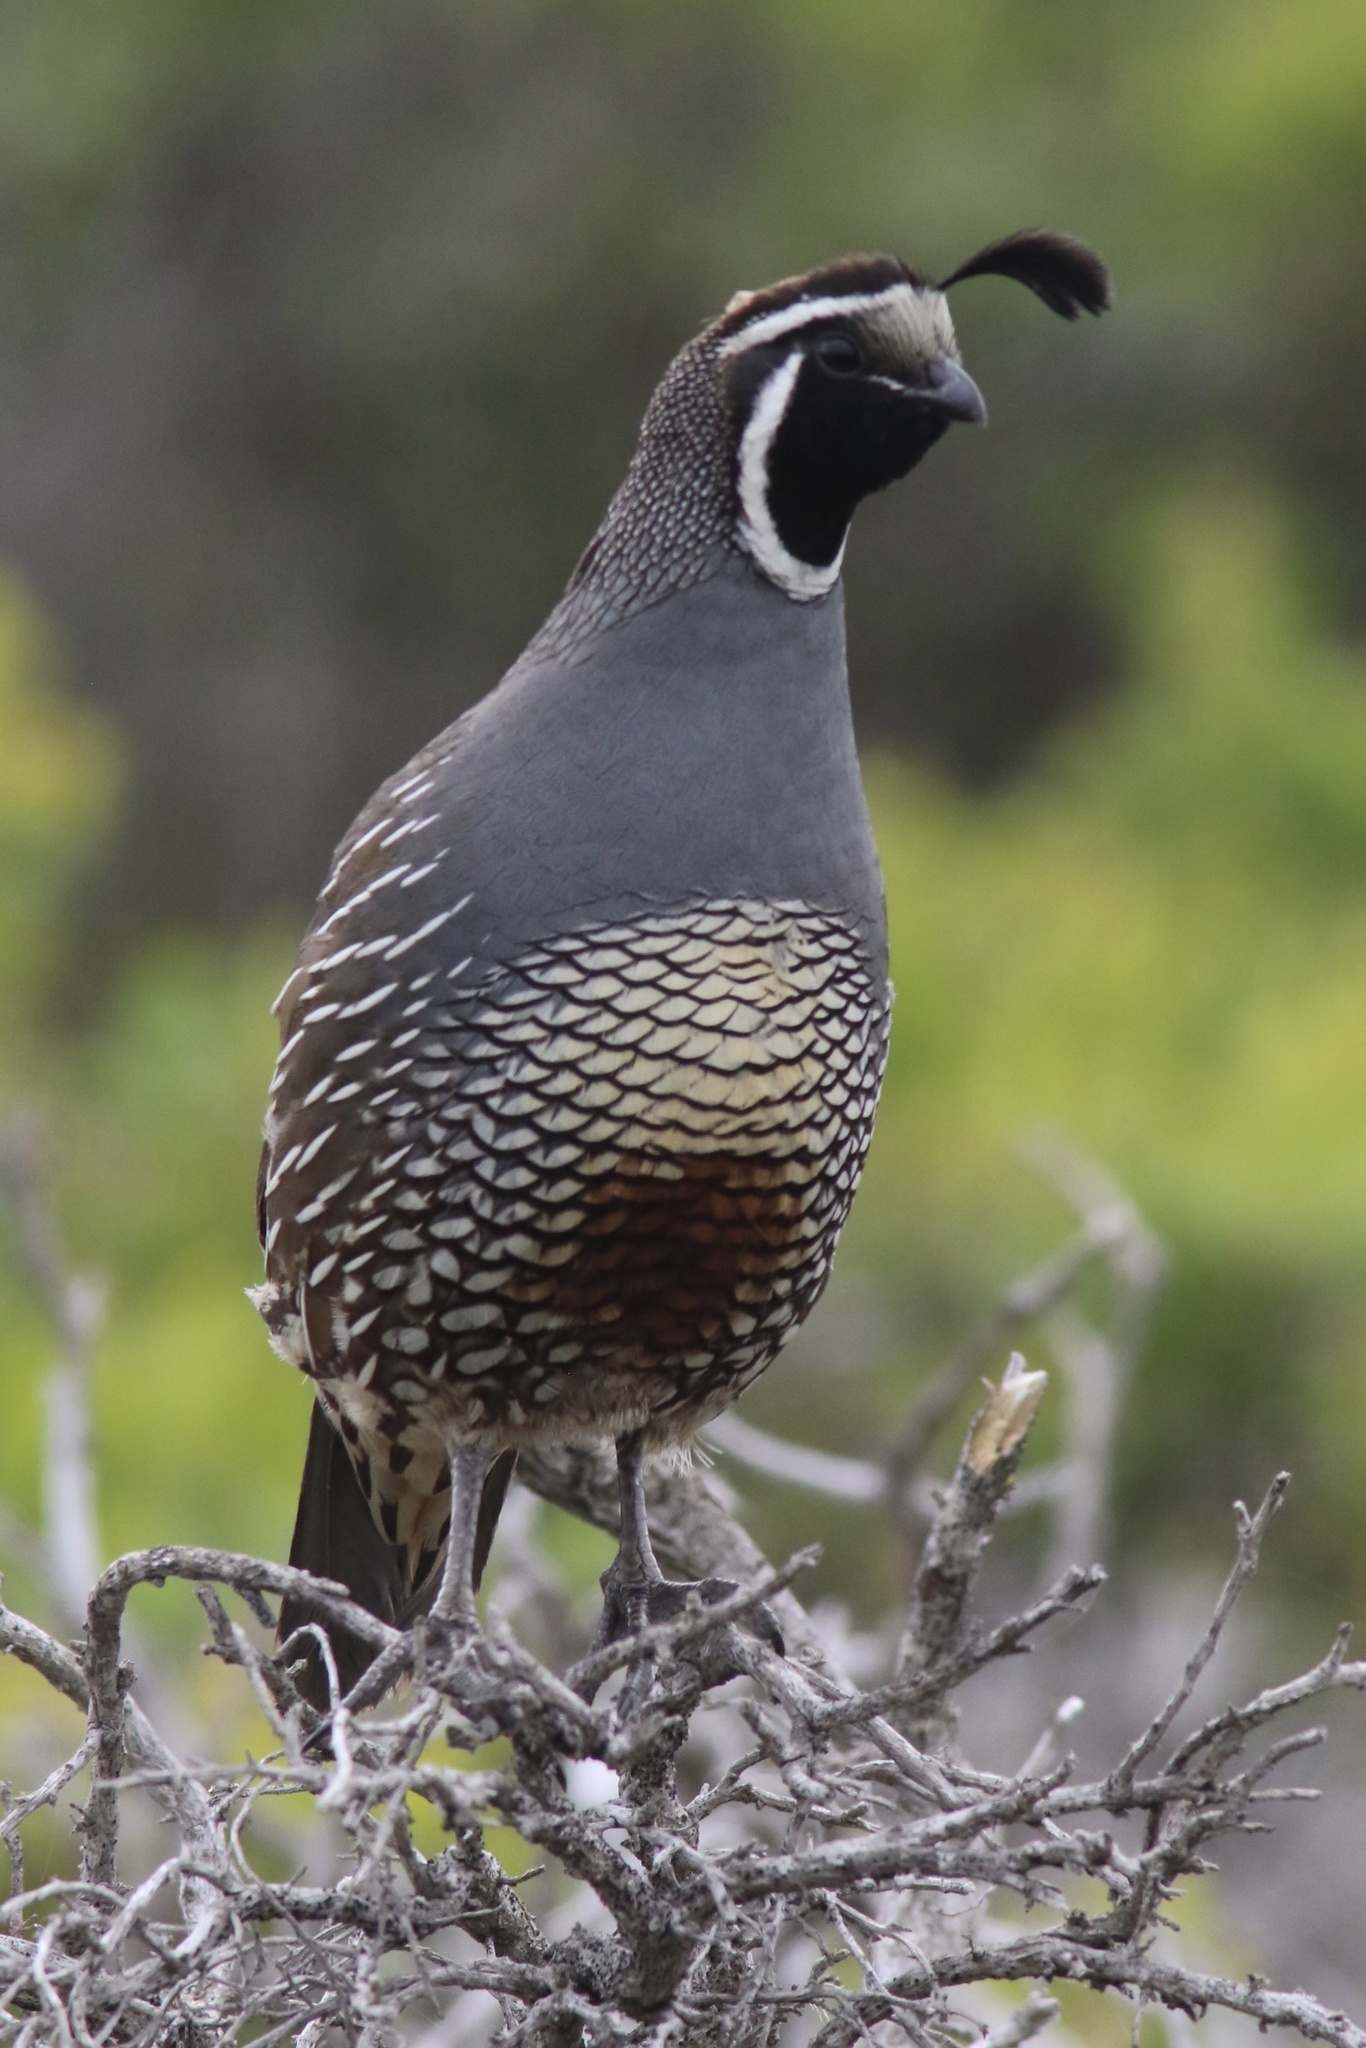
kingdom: Animalia
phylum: Chordata
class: Aves
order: Galliformes
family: Odontophoridae
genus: Callipepla
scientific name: Callipepla californica
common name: California quail
